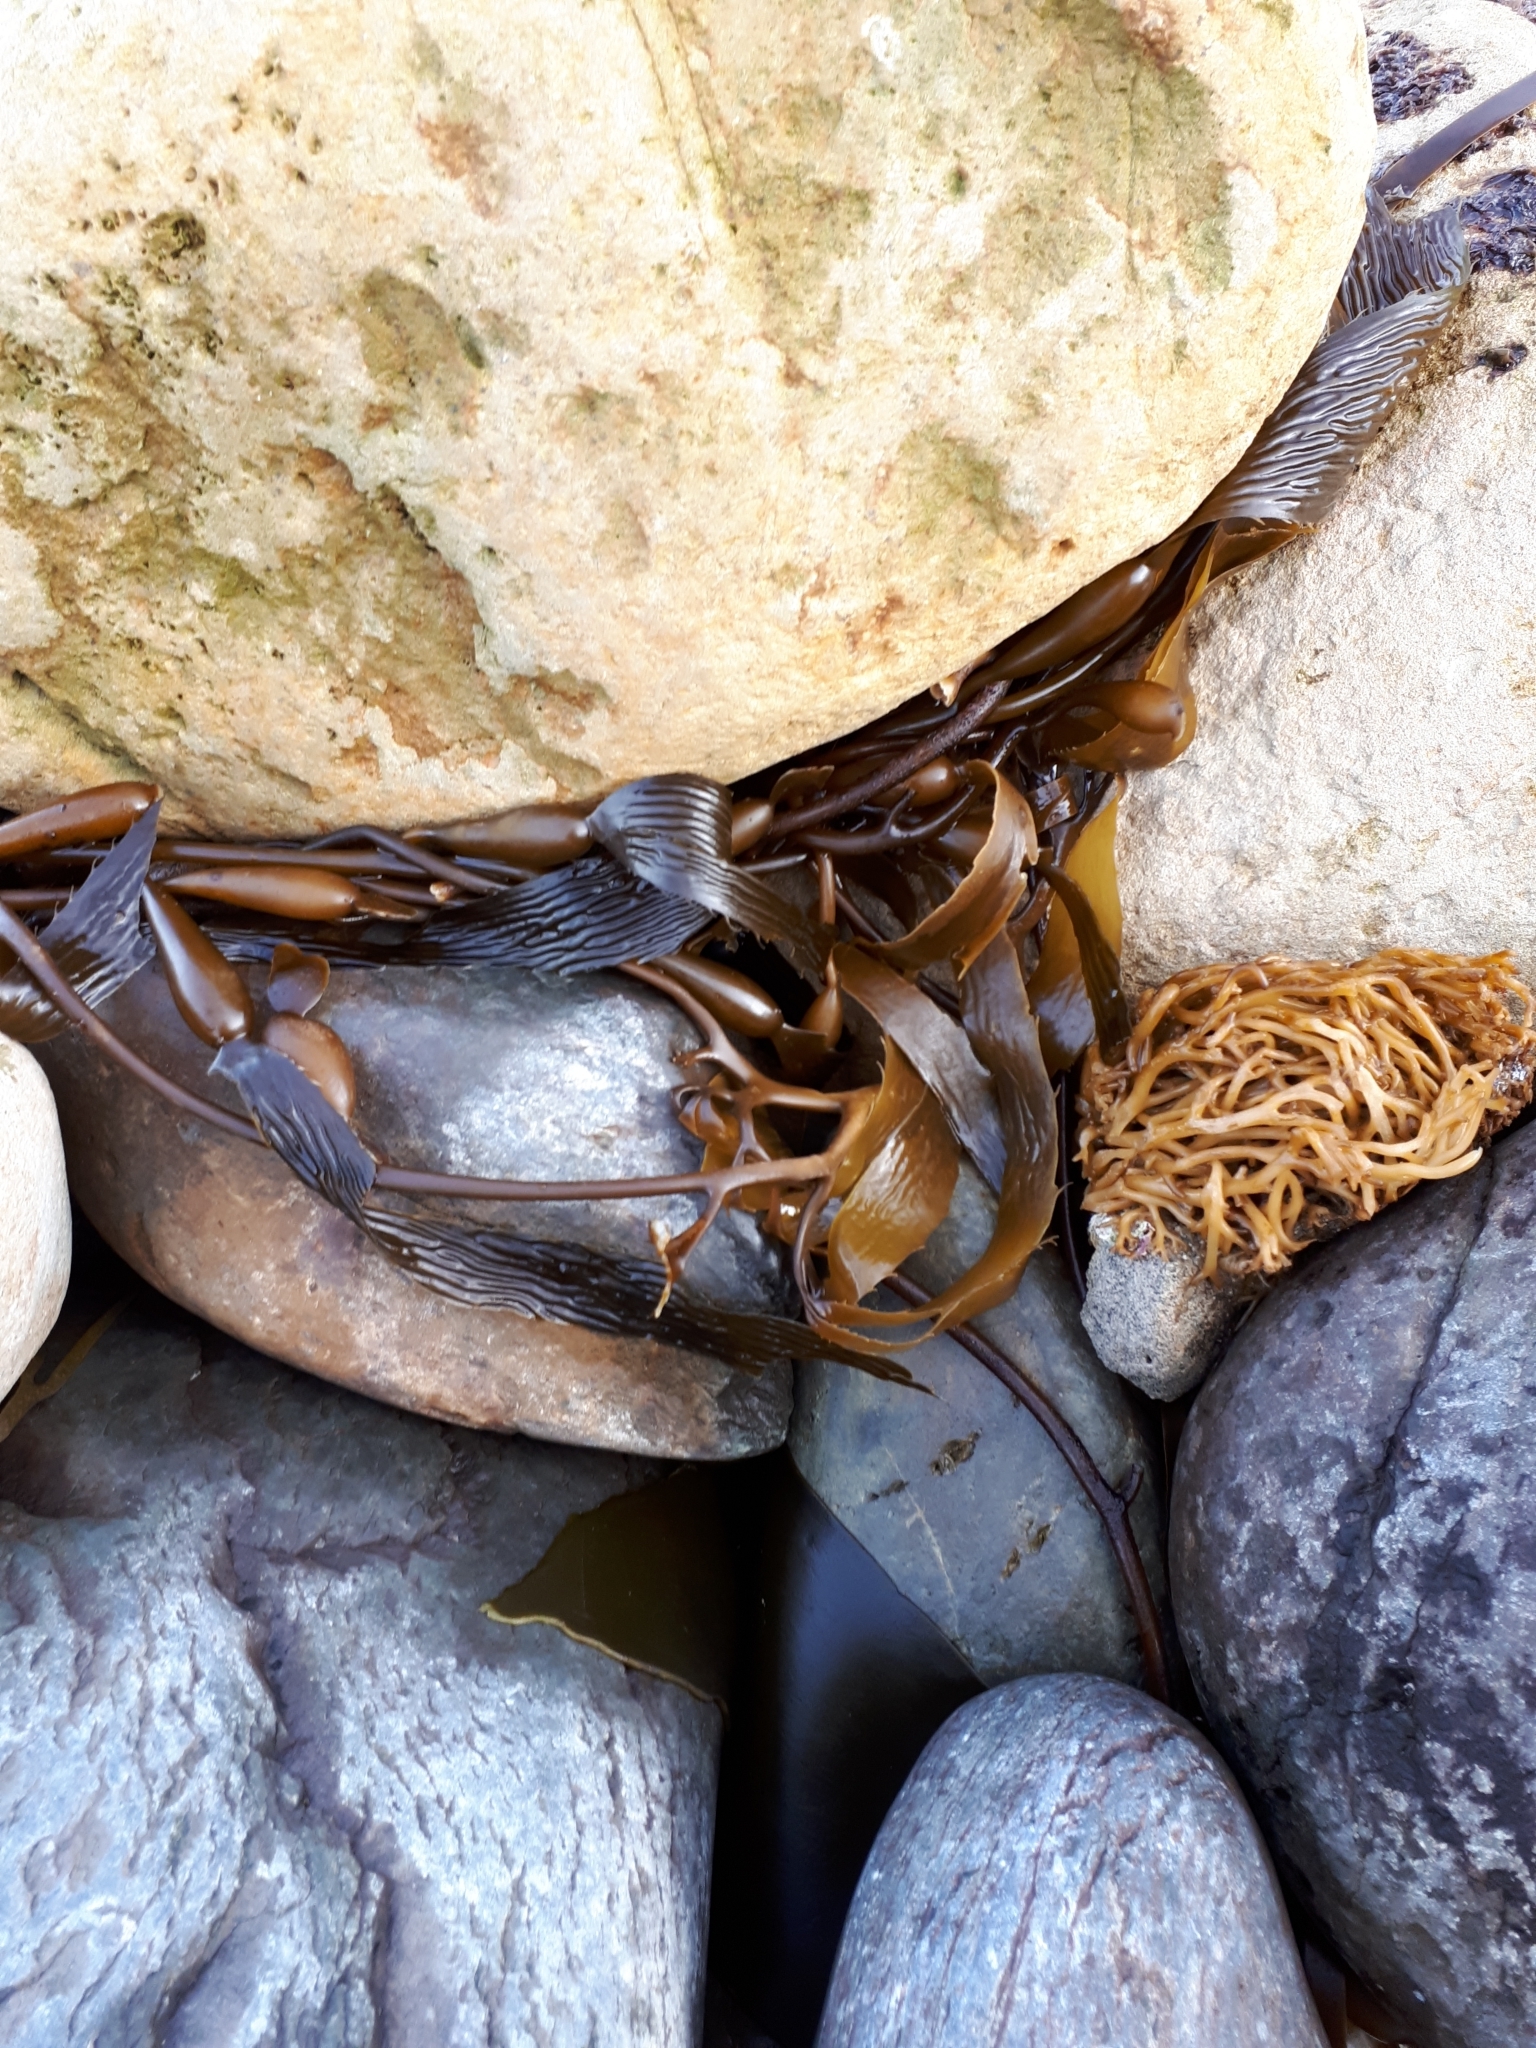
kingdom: Chromista
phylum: Ochrophyta
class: Phaeophyceae
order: Laminariales
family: Laminariaceae
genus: Macrocystis
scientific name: Macrocystis pyrifera
